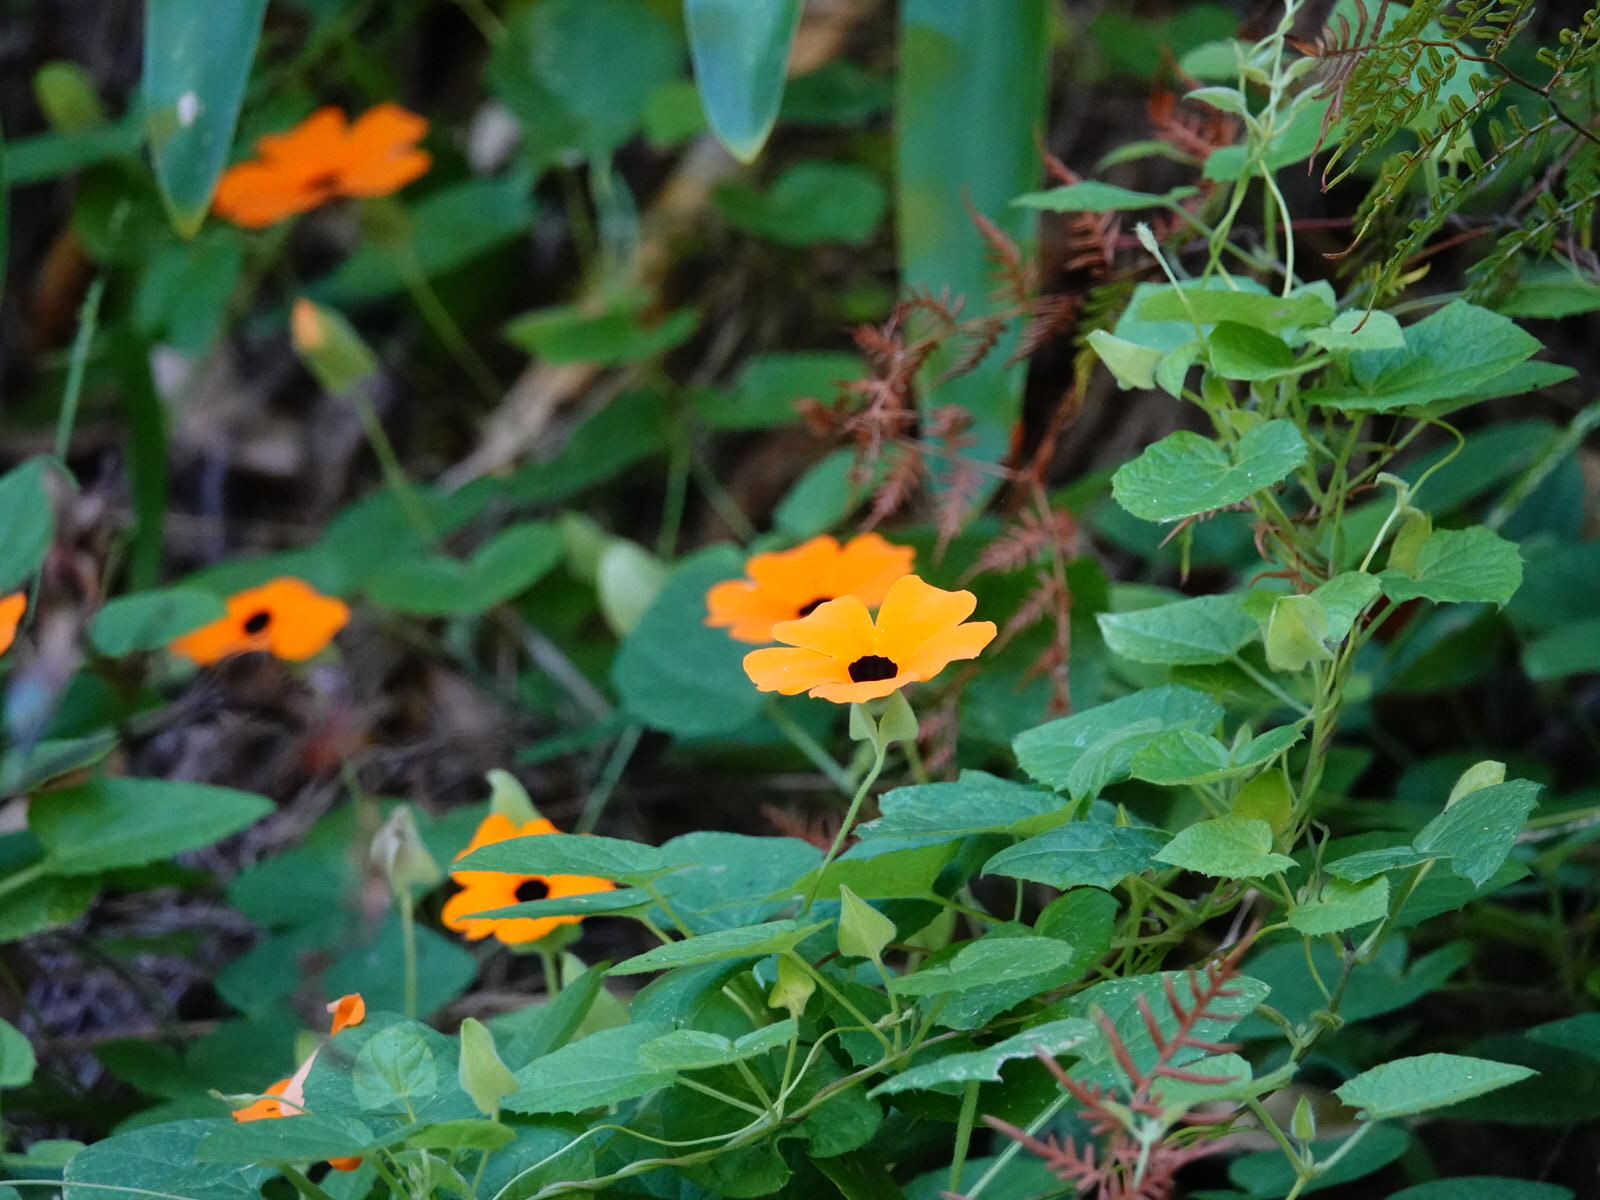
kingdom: Plantae
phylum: Tracheophyta
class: Magnoliopsida
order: Lamiales
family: Acanthaceae
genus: Thunbergia
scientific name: Thunbergia alata
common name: Blackeyed susan vine
